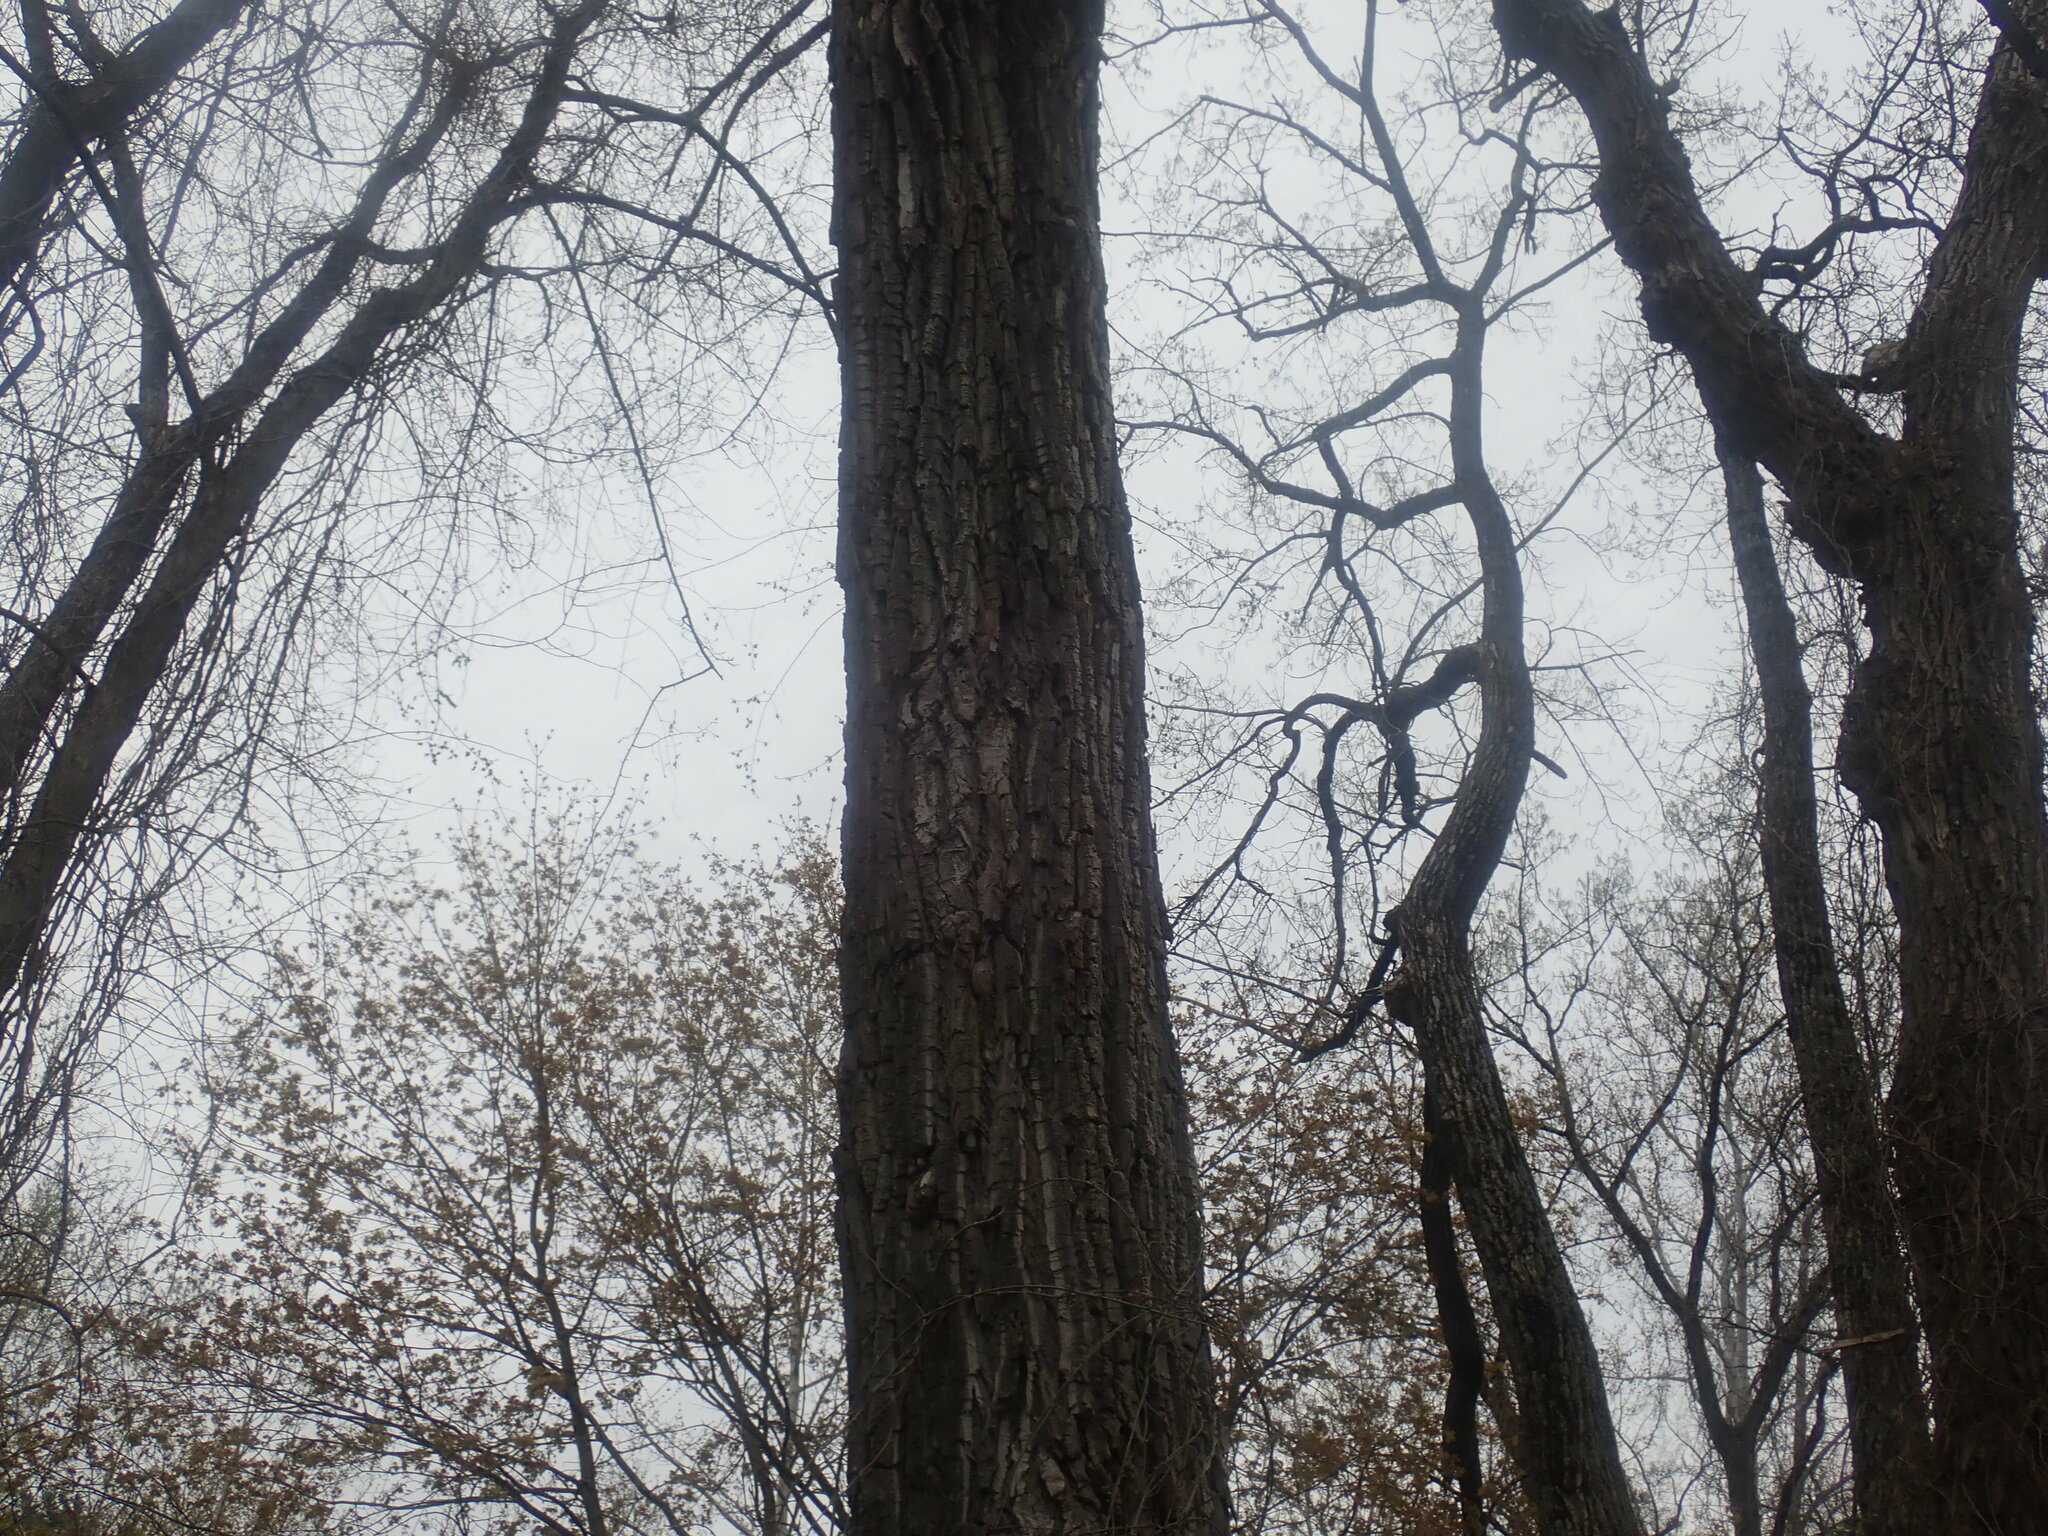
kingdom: Plantae
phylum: Tracheophyta
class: Magnoliopsida
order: Malpighiales
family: Salicaceae
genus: Populus
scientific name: Populus deltoides
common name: Eastern cottonwood
